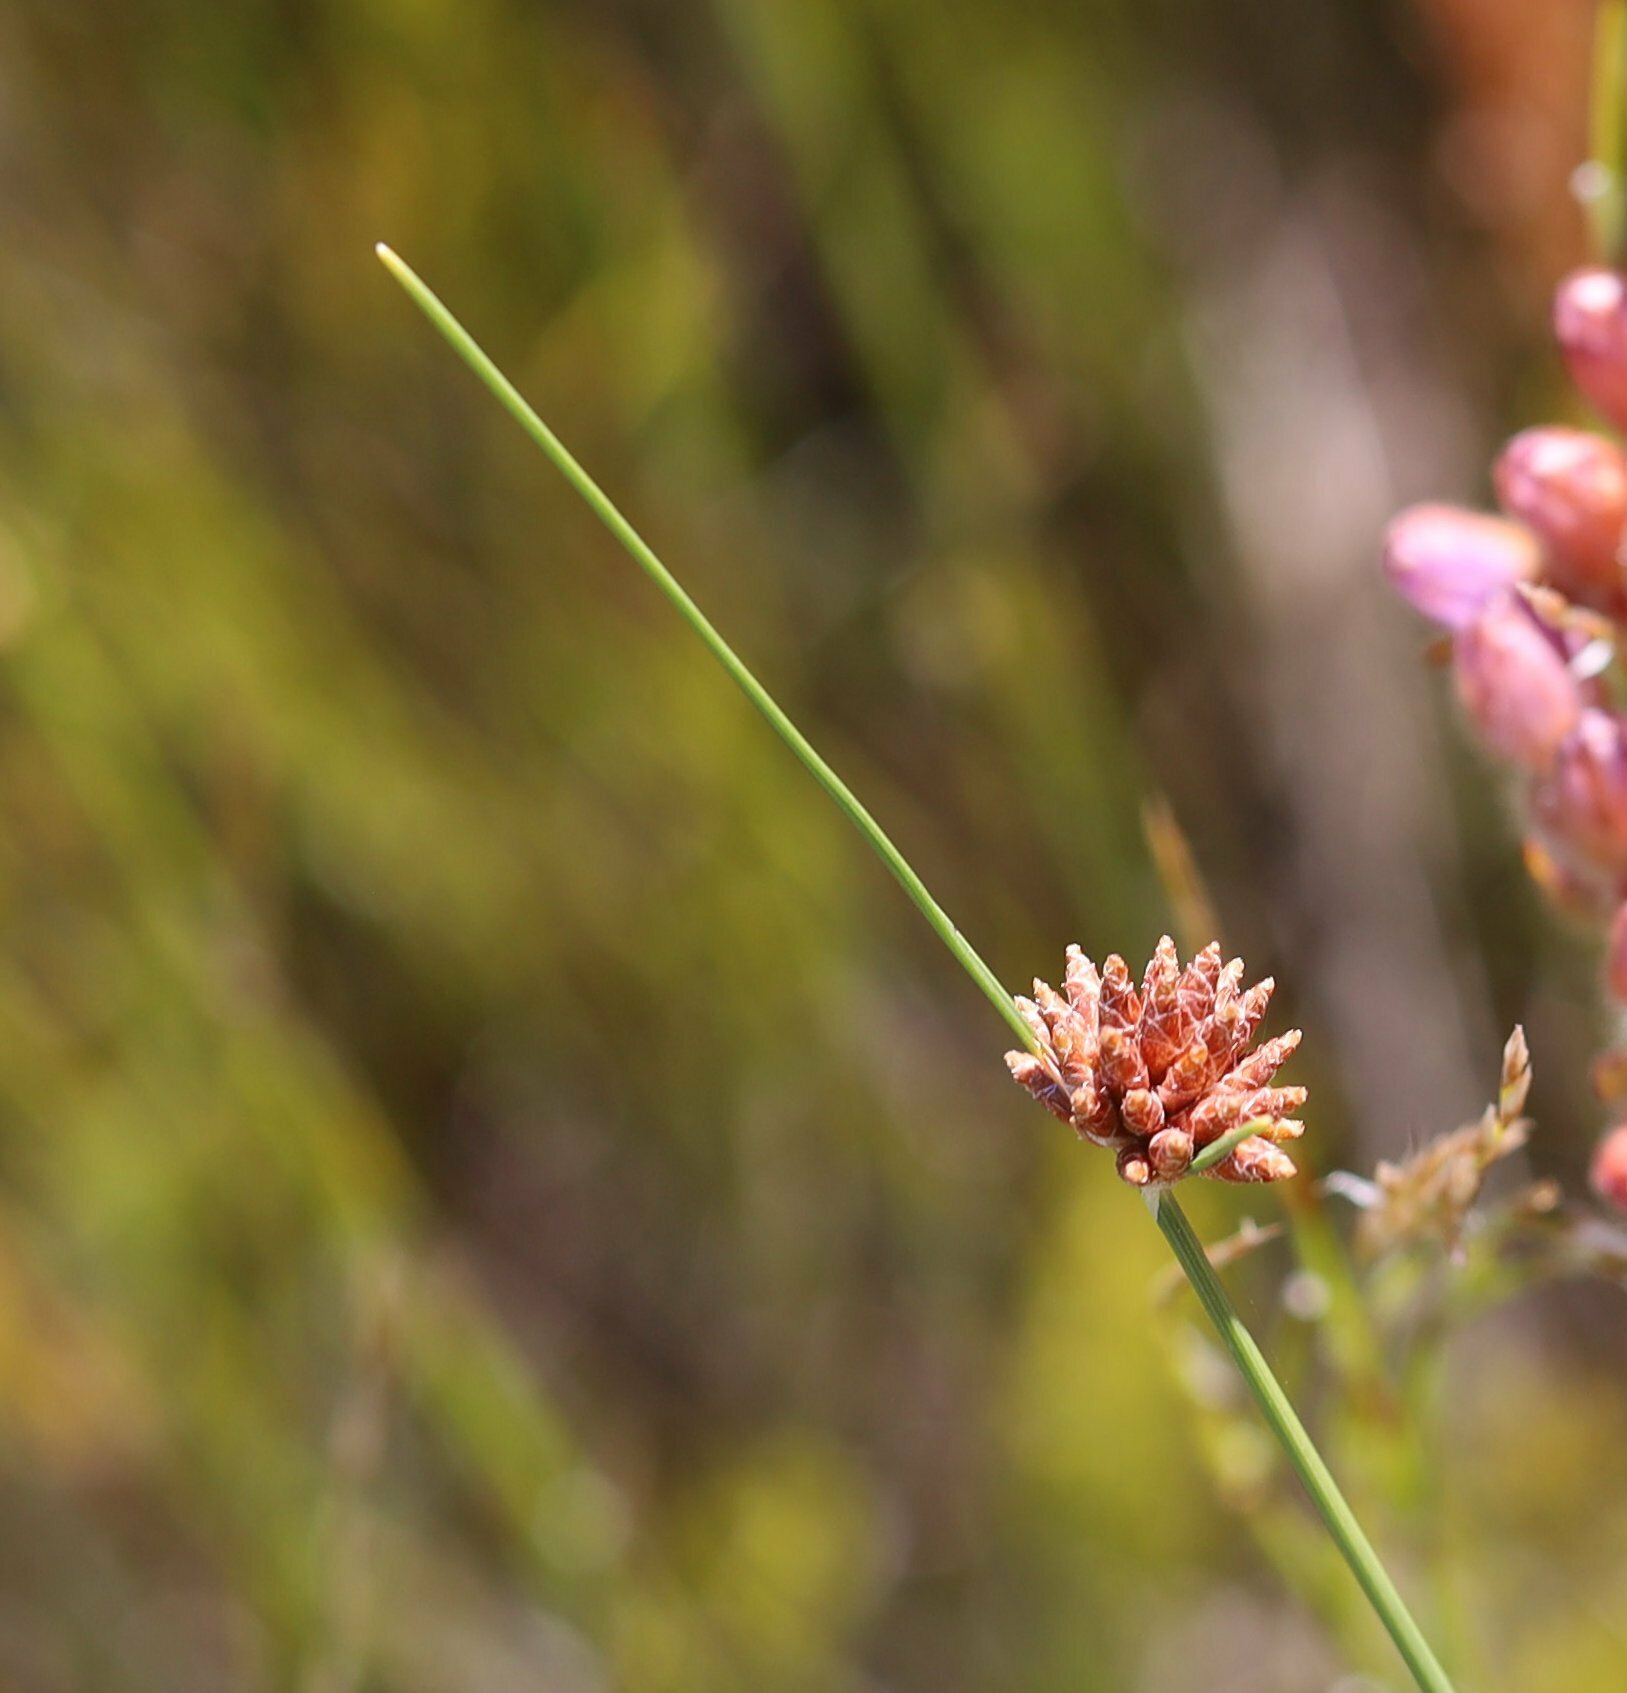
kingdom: Plantae
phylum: Tracheophyta
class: Liliopsida
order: Poales
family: Cyperaceae
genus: Ficinia
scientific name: Ficinia ecklonea
